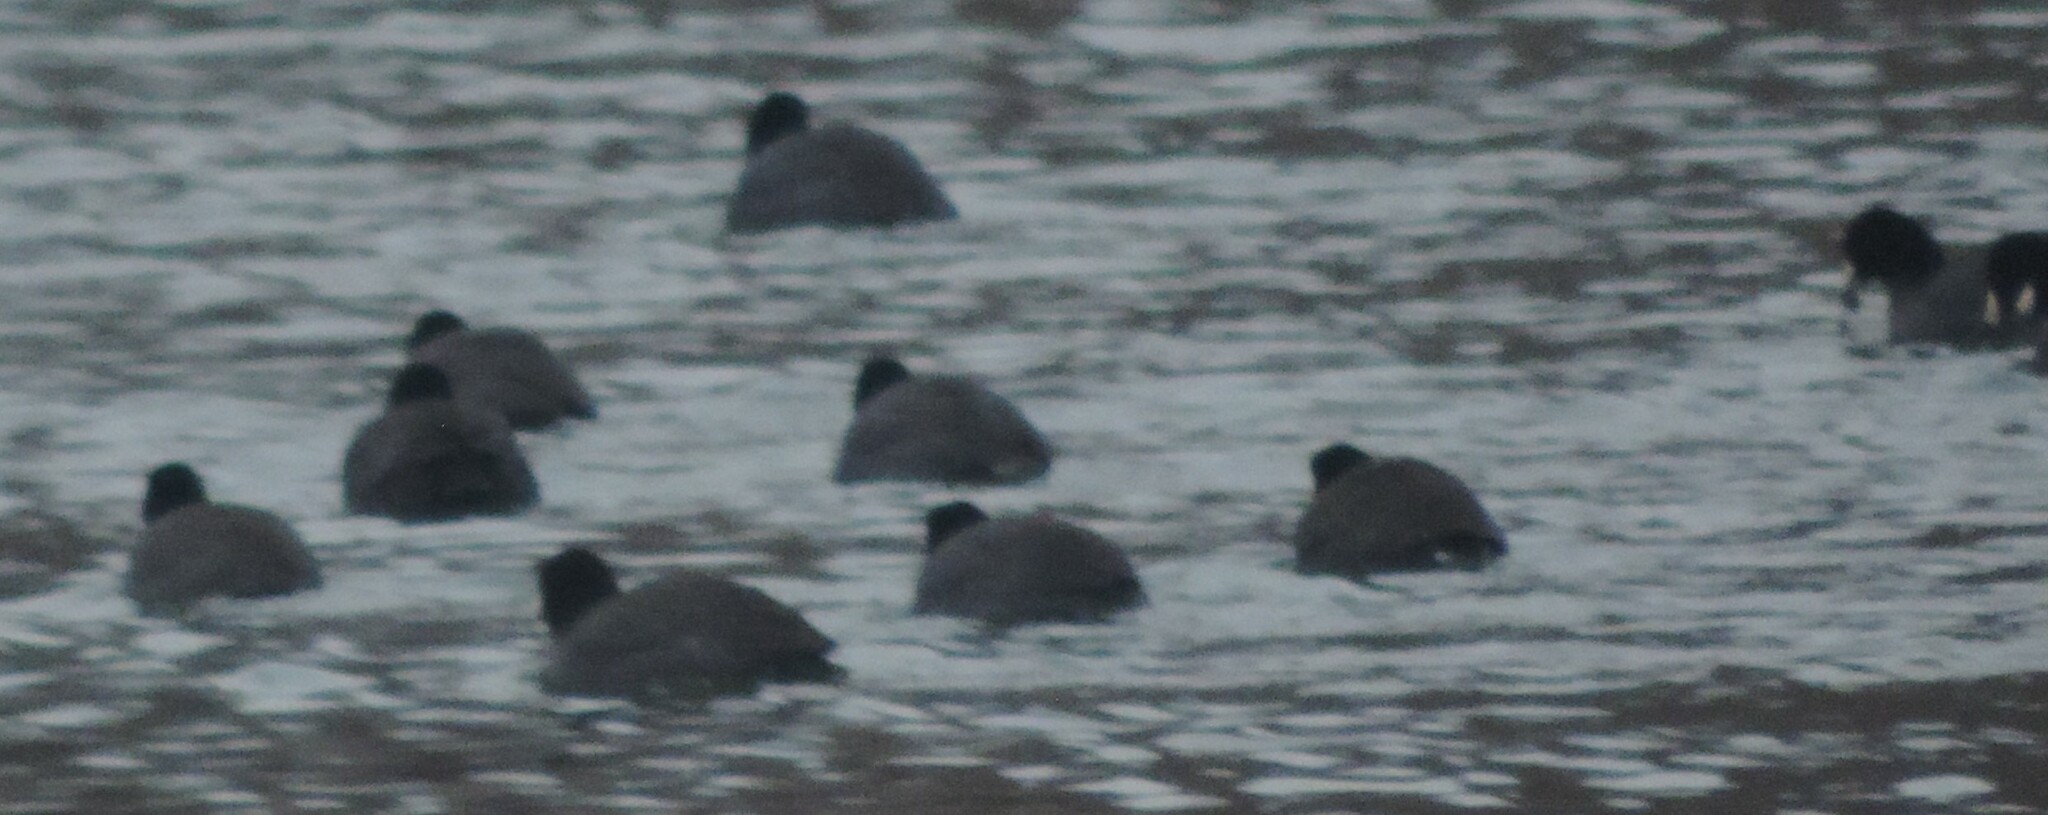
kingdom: Animalia
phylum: Chordata
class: Aves
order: Gruiformes
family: Rallidae
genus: Fulica
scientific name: Fulica americana
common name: American coot
